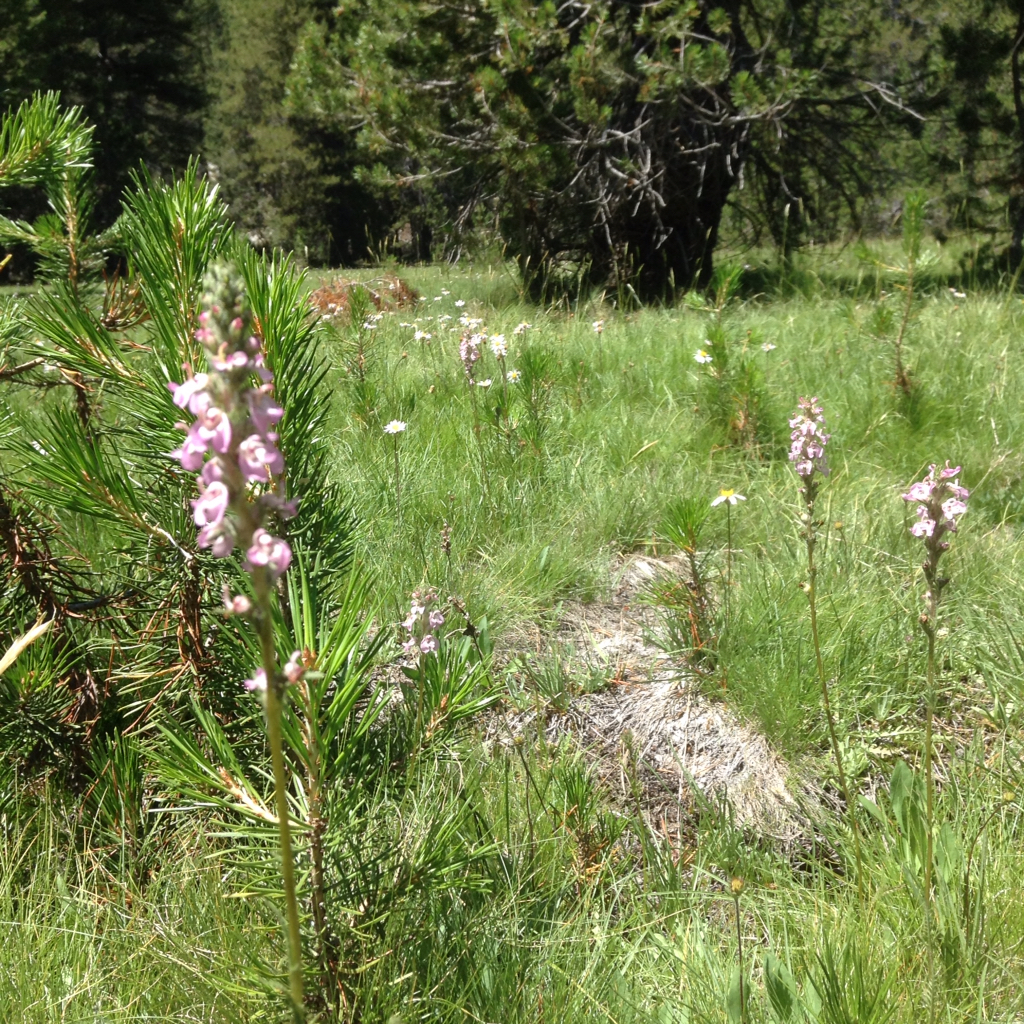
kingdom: Plantae
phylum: Tracheophyta
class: Magnoliopsida
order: Lamiales
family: Orobanchaceae
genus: Pedicularis
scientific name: Pedicularis attollens
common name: Slender pedicularis
